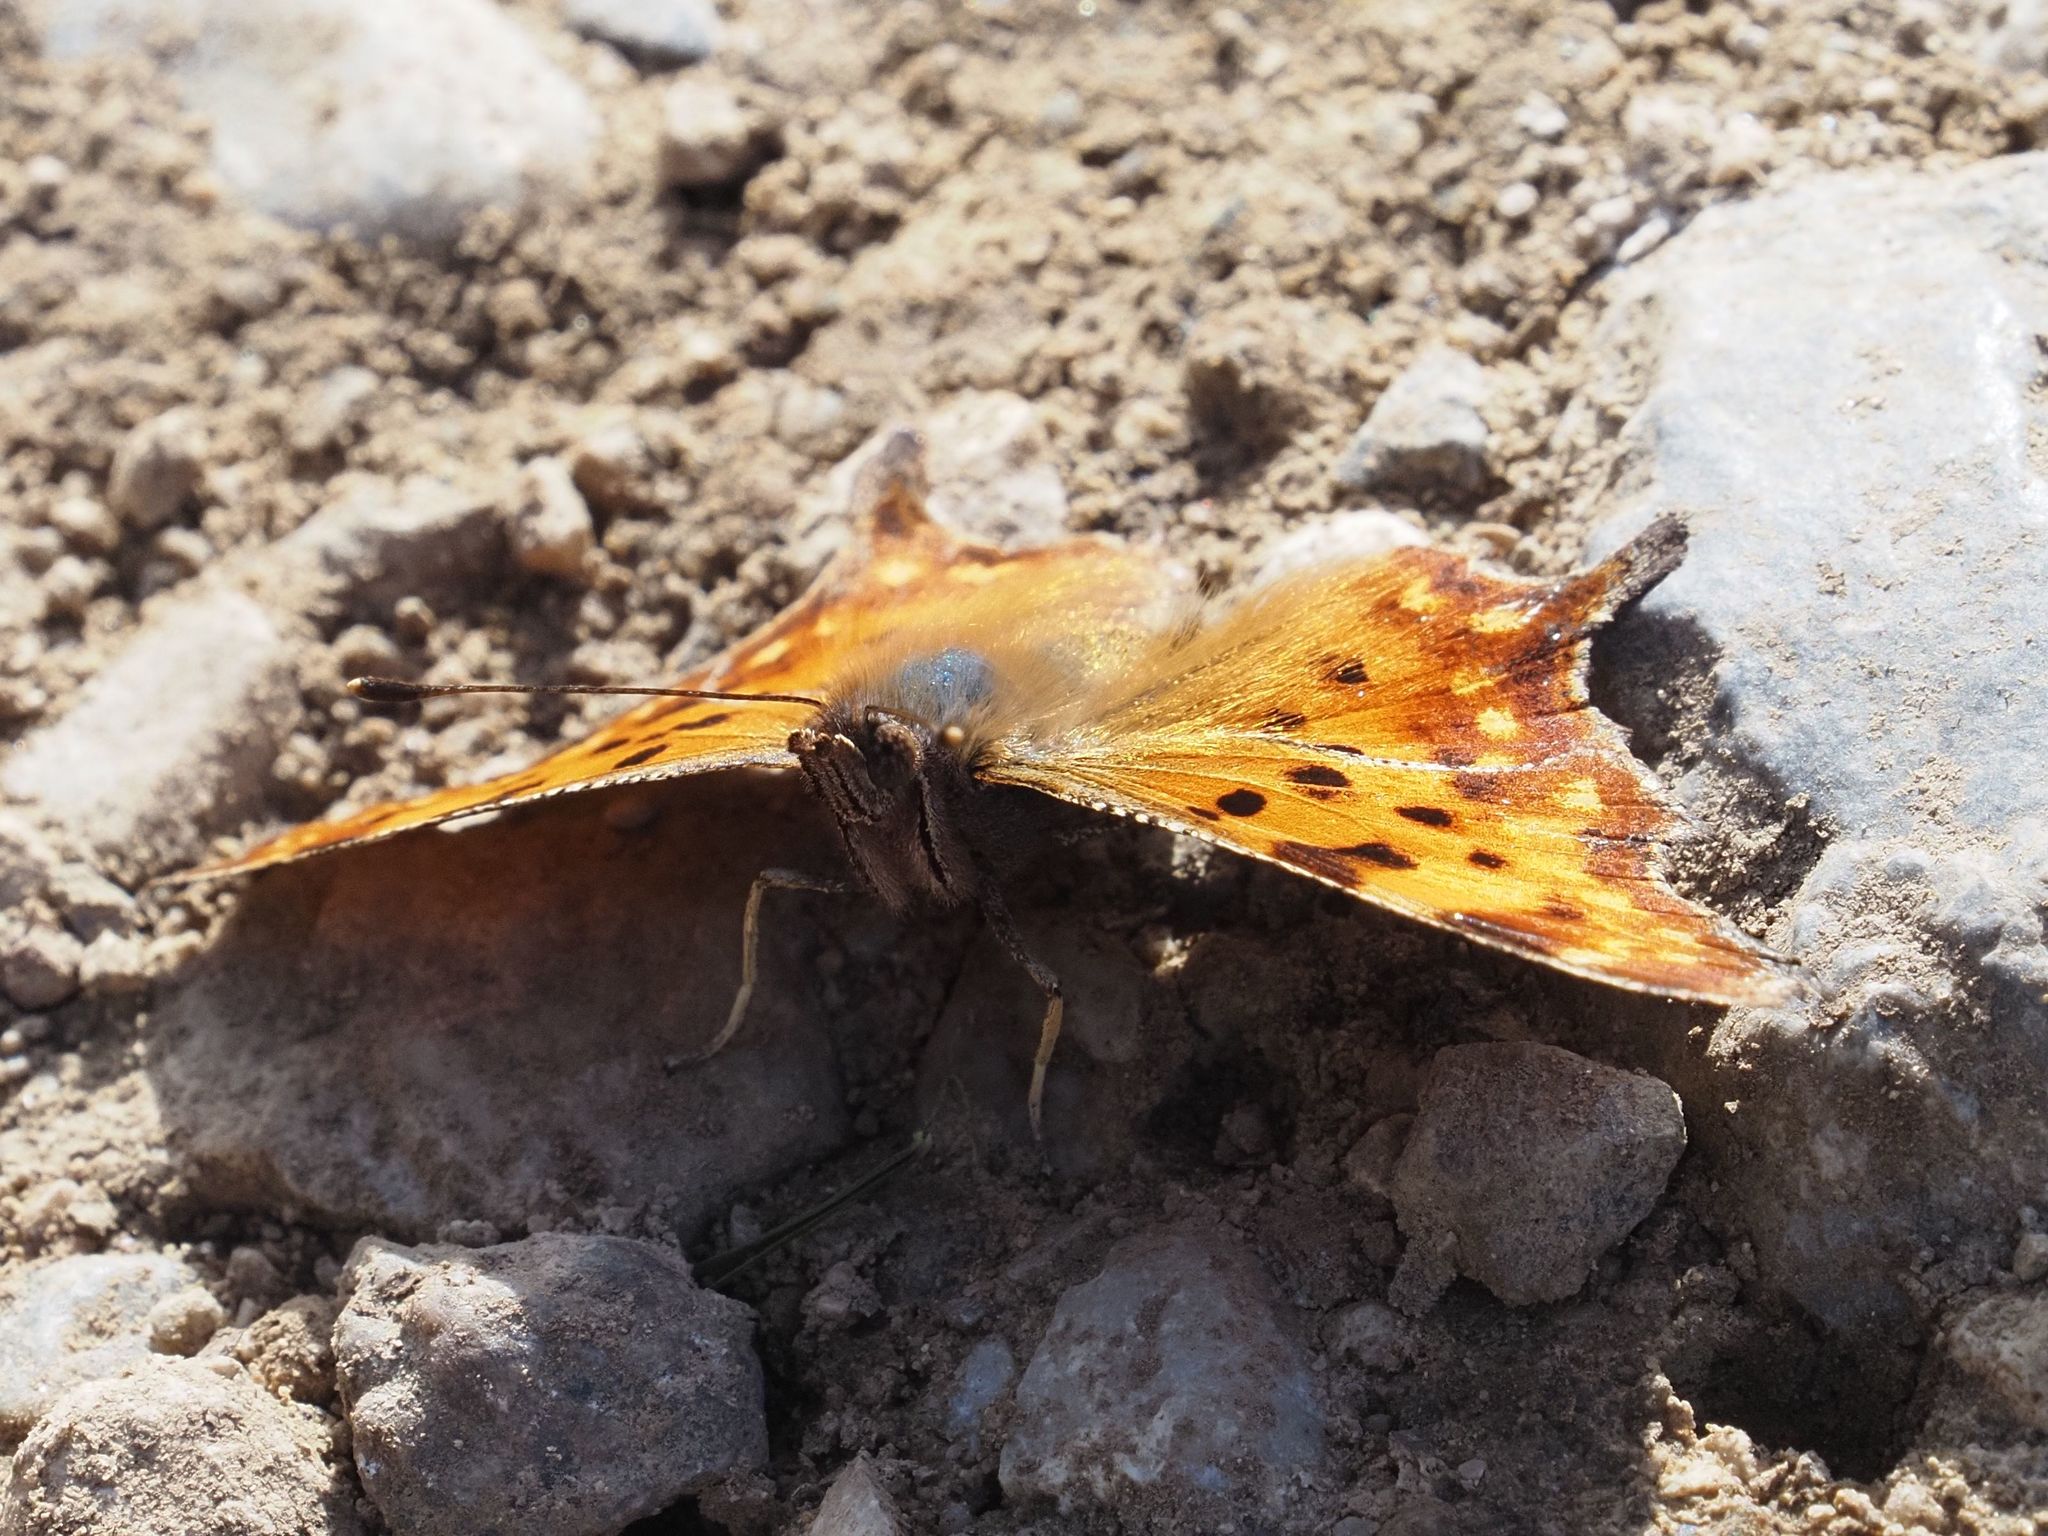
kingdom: Animalia
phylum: Arthropoda
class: Insecta
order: Lepidoptera
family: Nymphalidae
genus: Polygonia
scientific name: Polygonia c-album
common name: Comma
